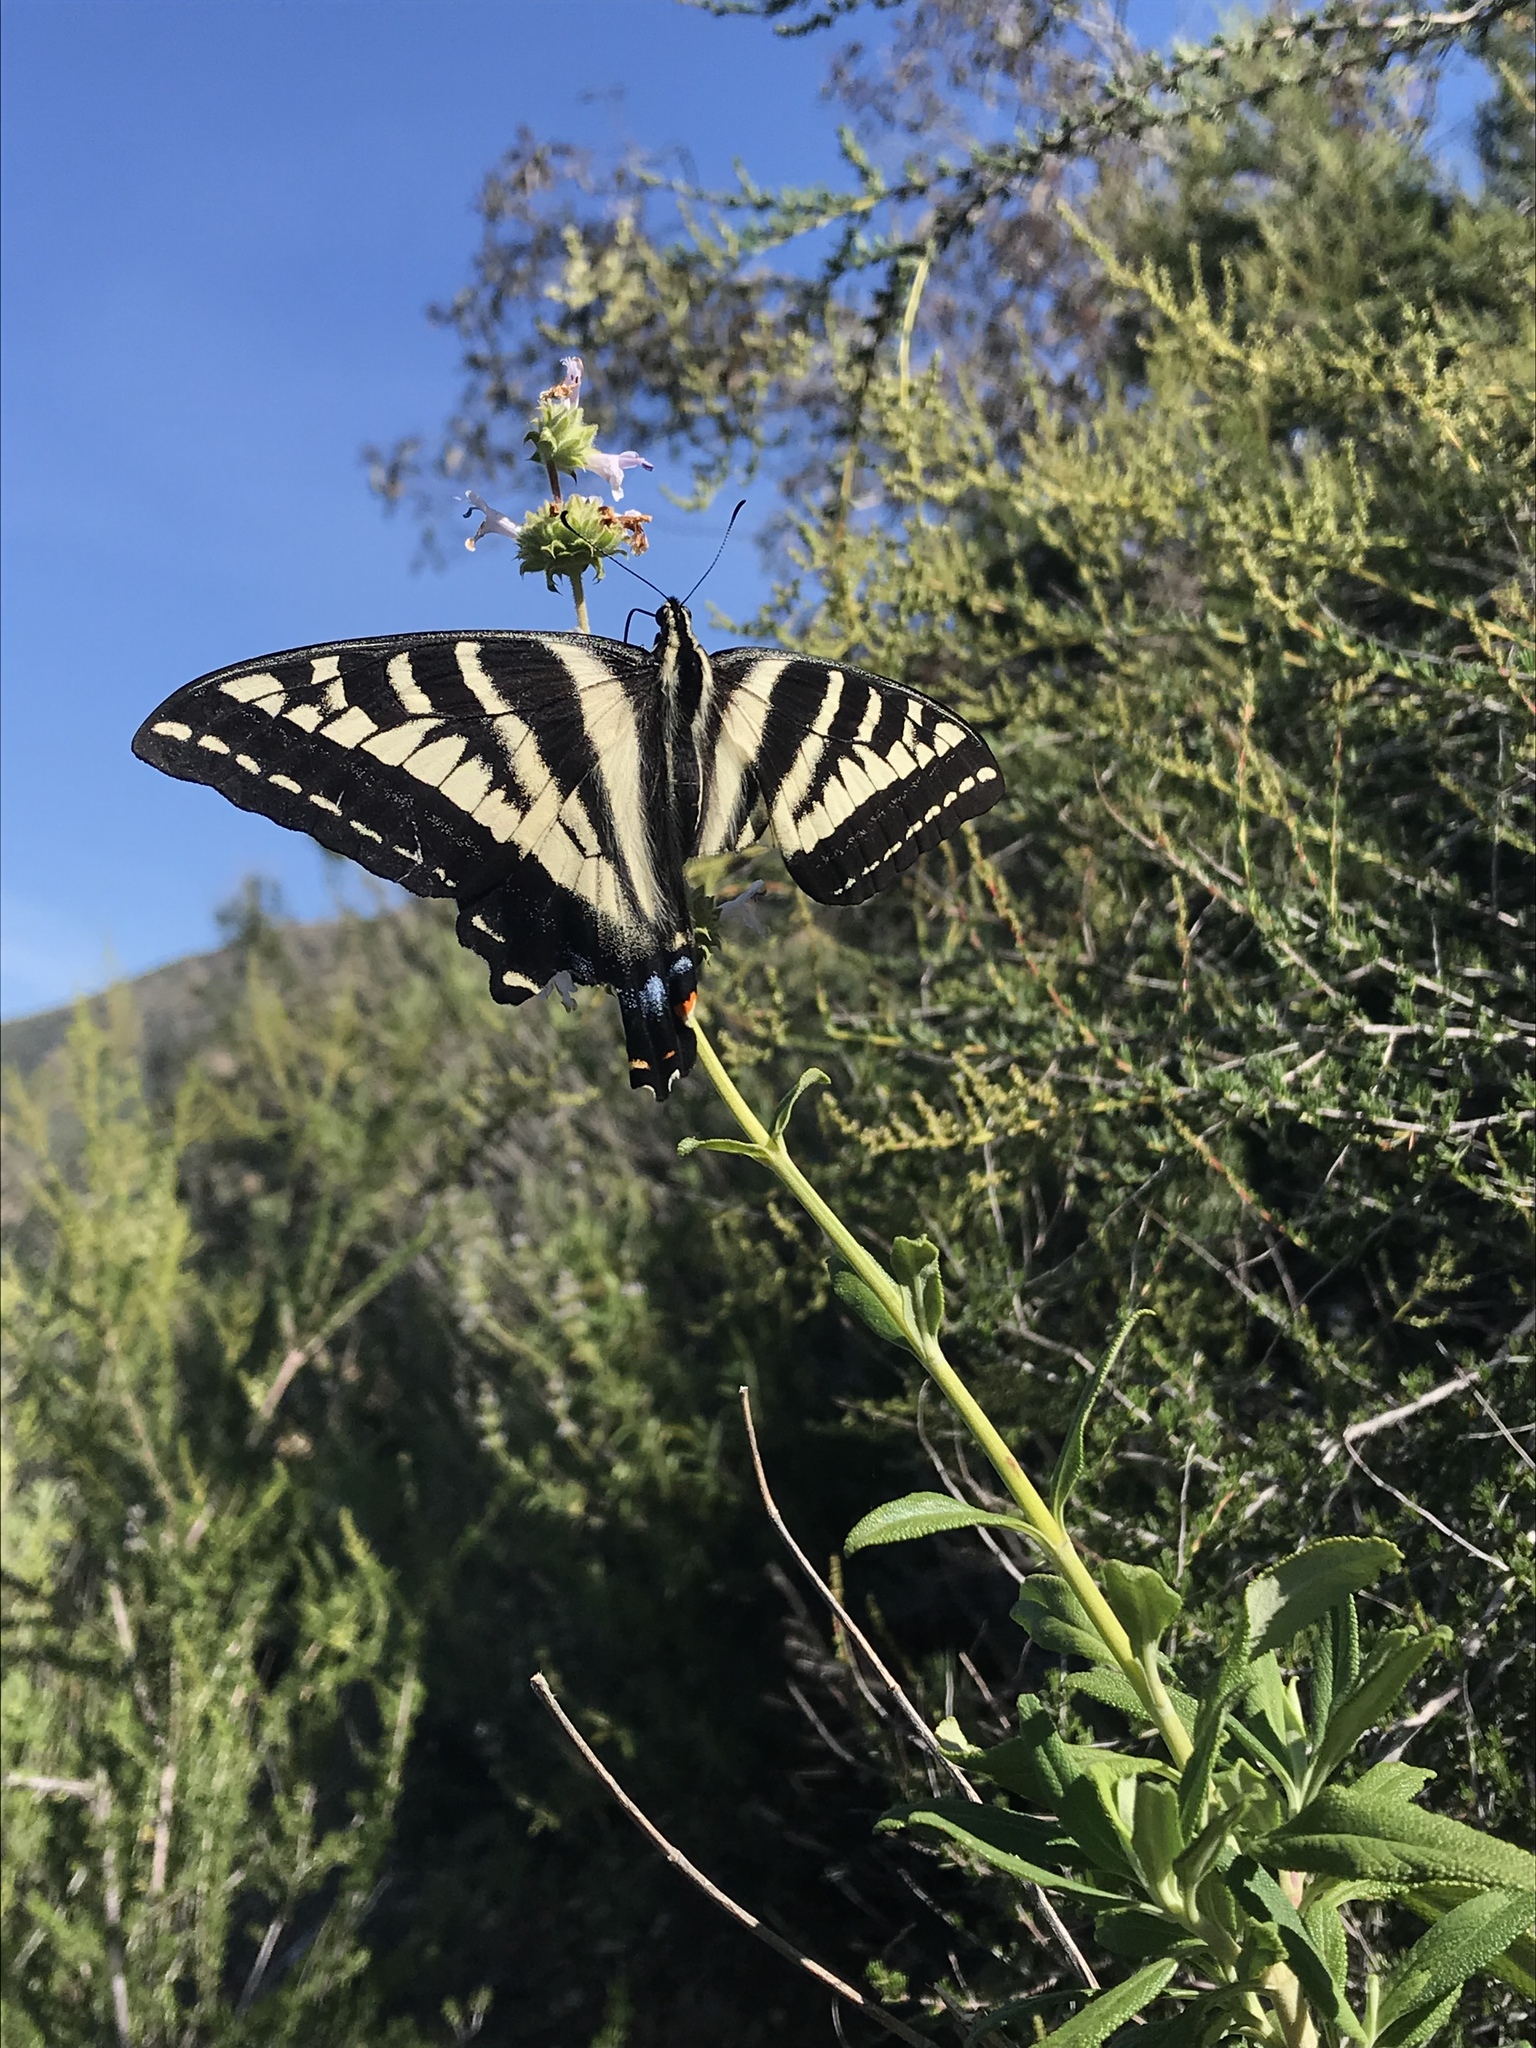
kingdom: Animalia
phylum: Arthropoda
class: Insecta
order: Lepidoptera
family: Papilionidae
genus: Papilio
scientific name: Papilio eurymedon
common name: Pale tiger swallowtail
